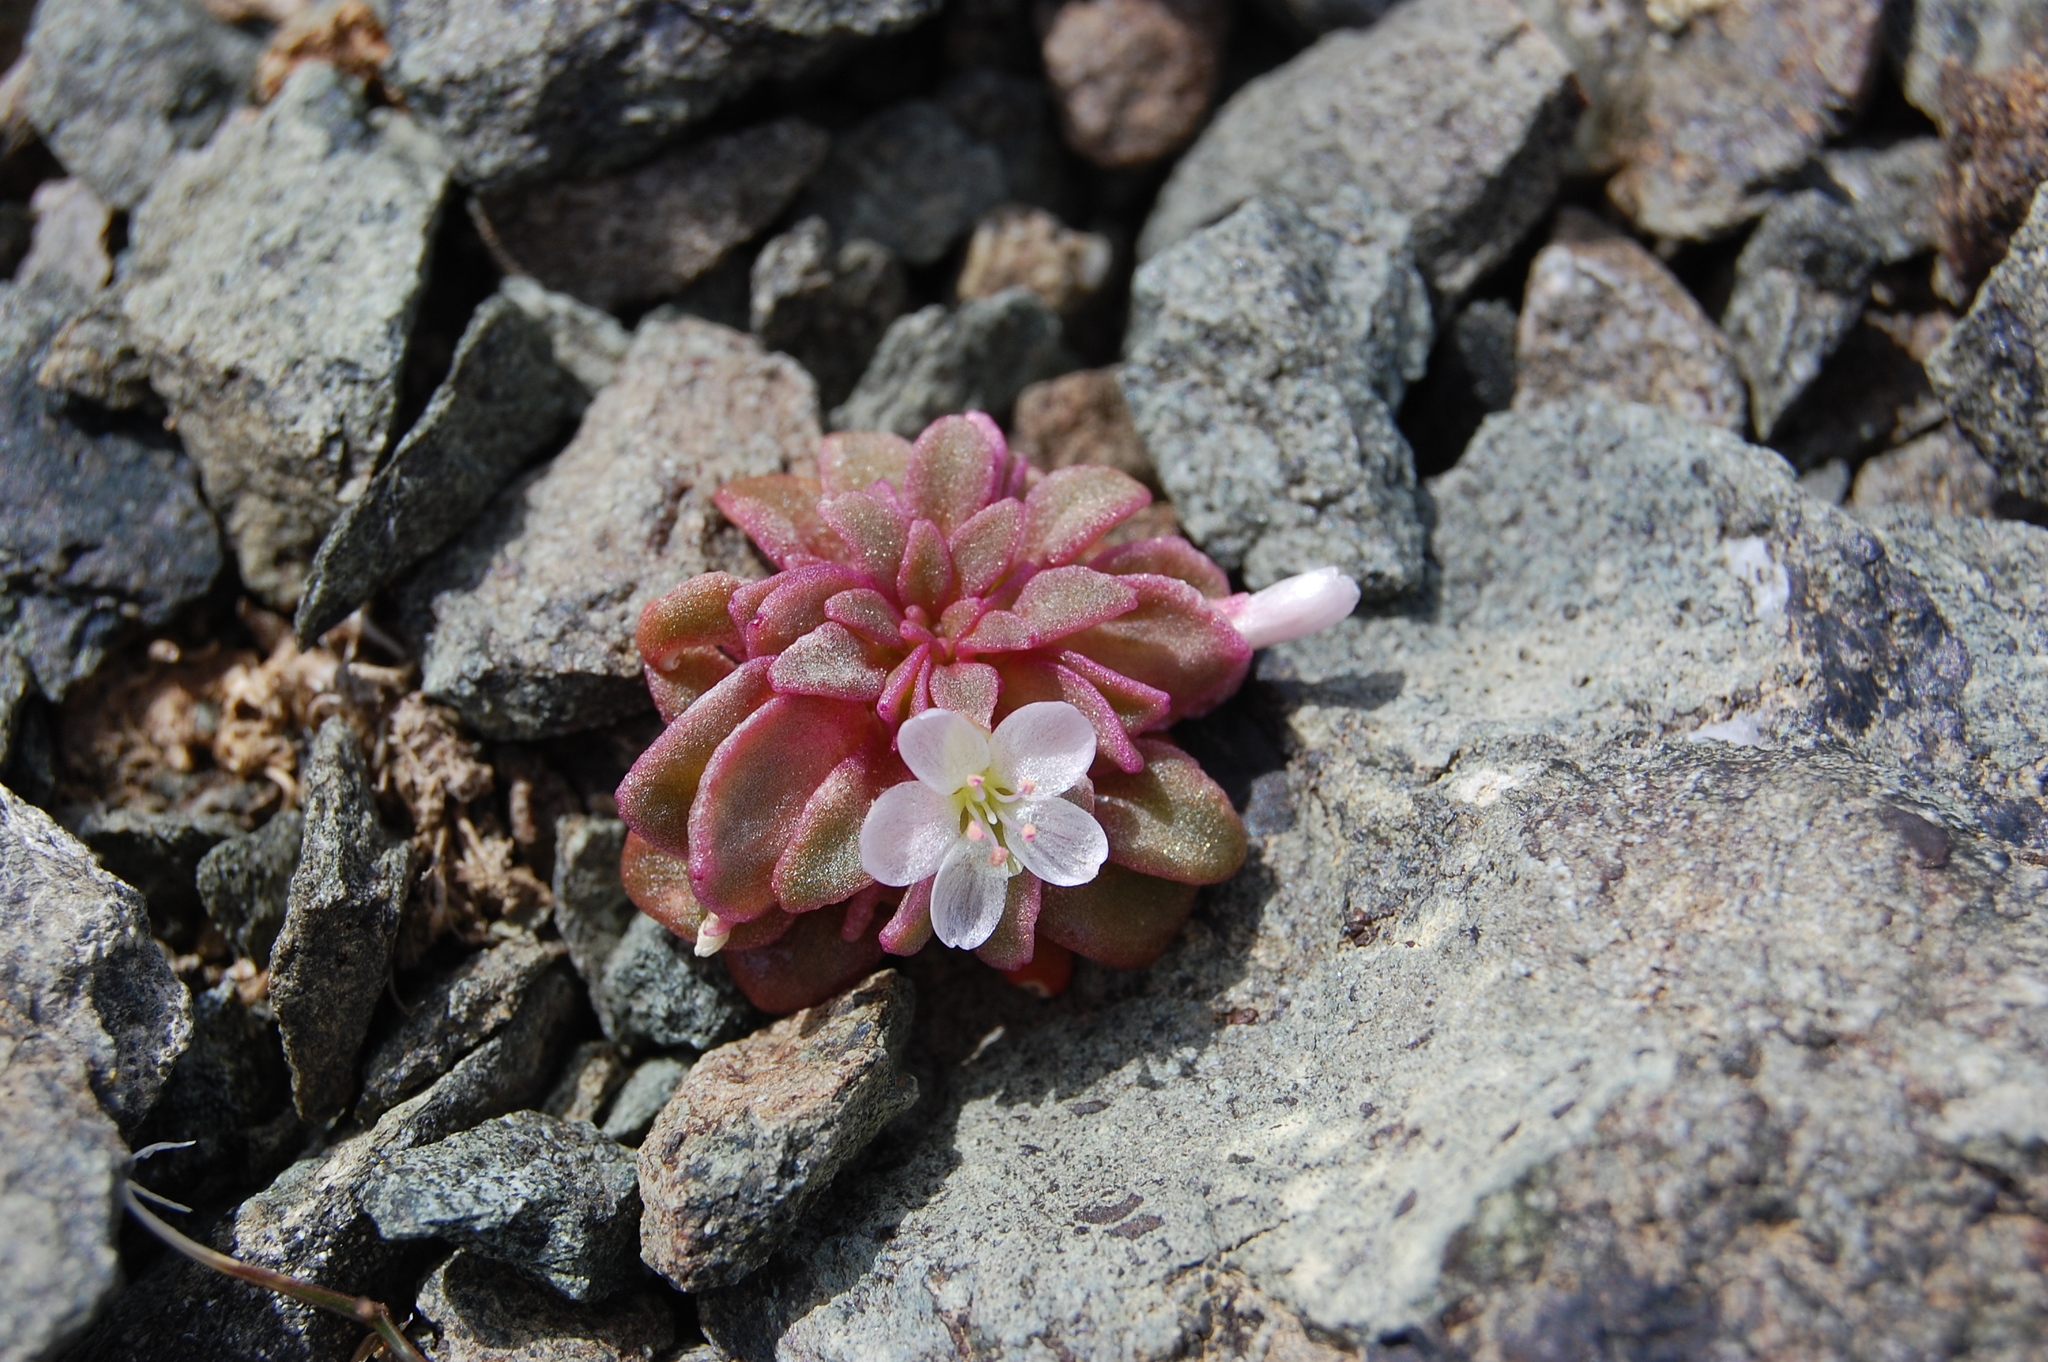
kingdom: Plantae
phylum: Tracheophyta
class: Magnoliopsida
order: Caryophyllales
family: Montiaceae
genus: Claytonia
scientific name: Claytonia saxosa
